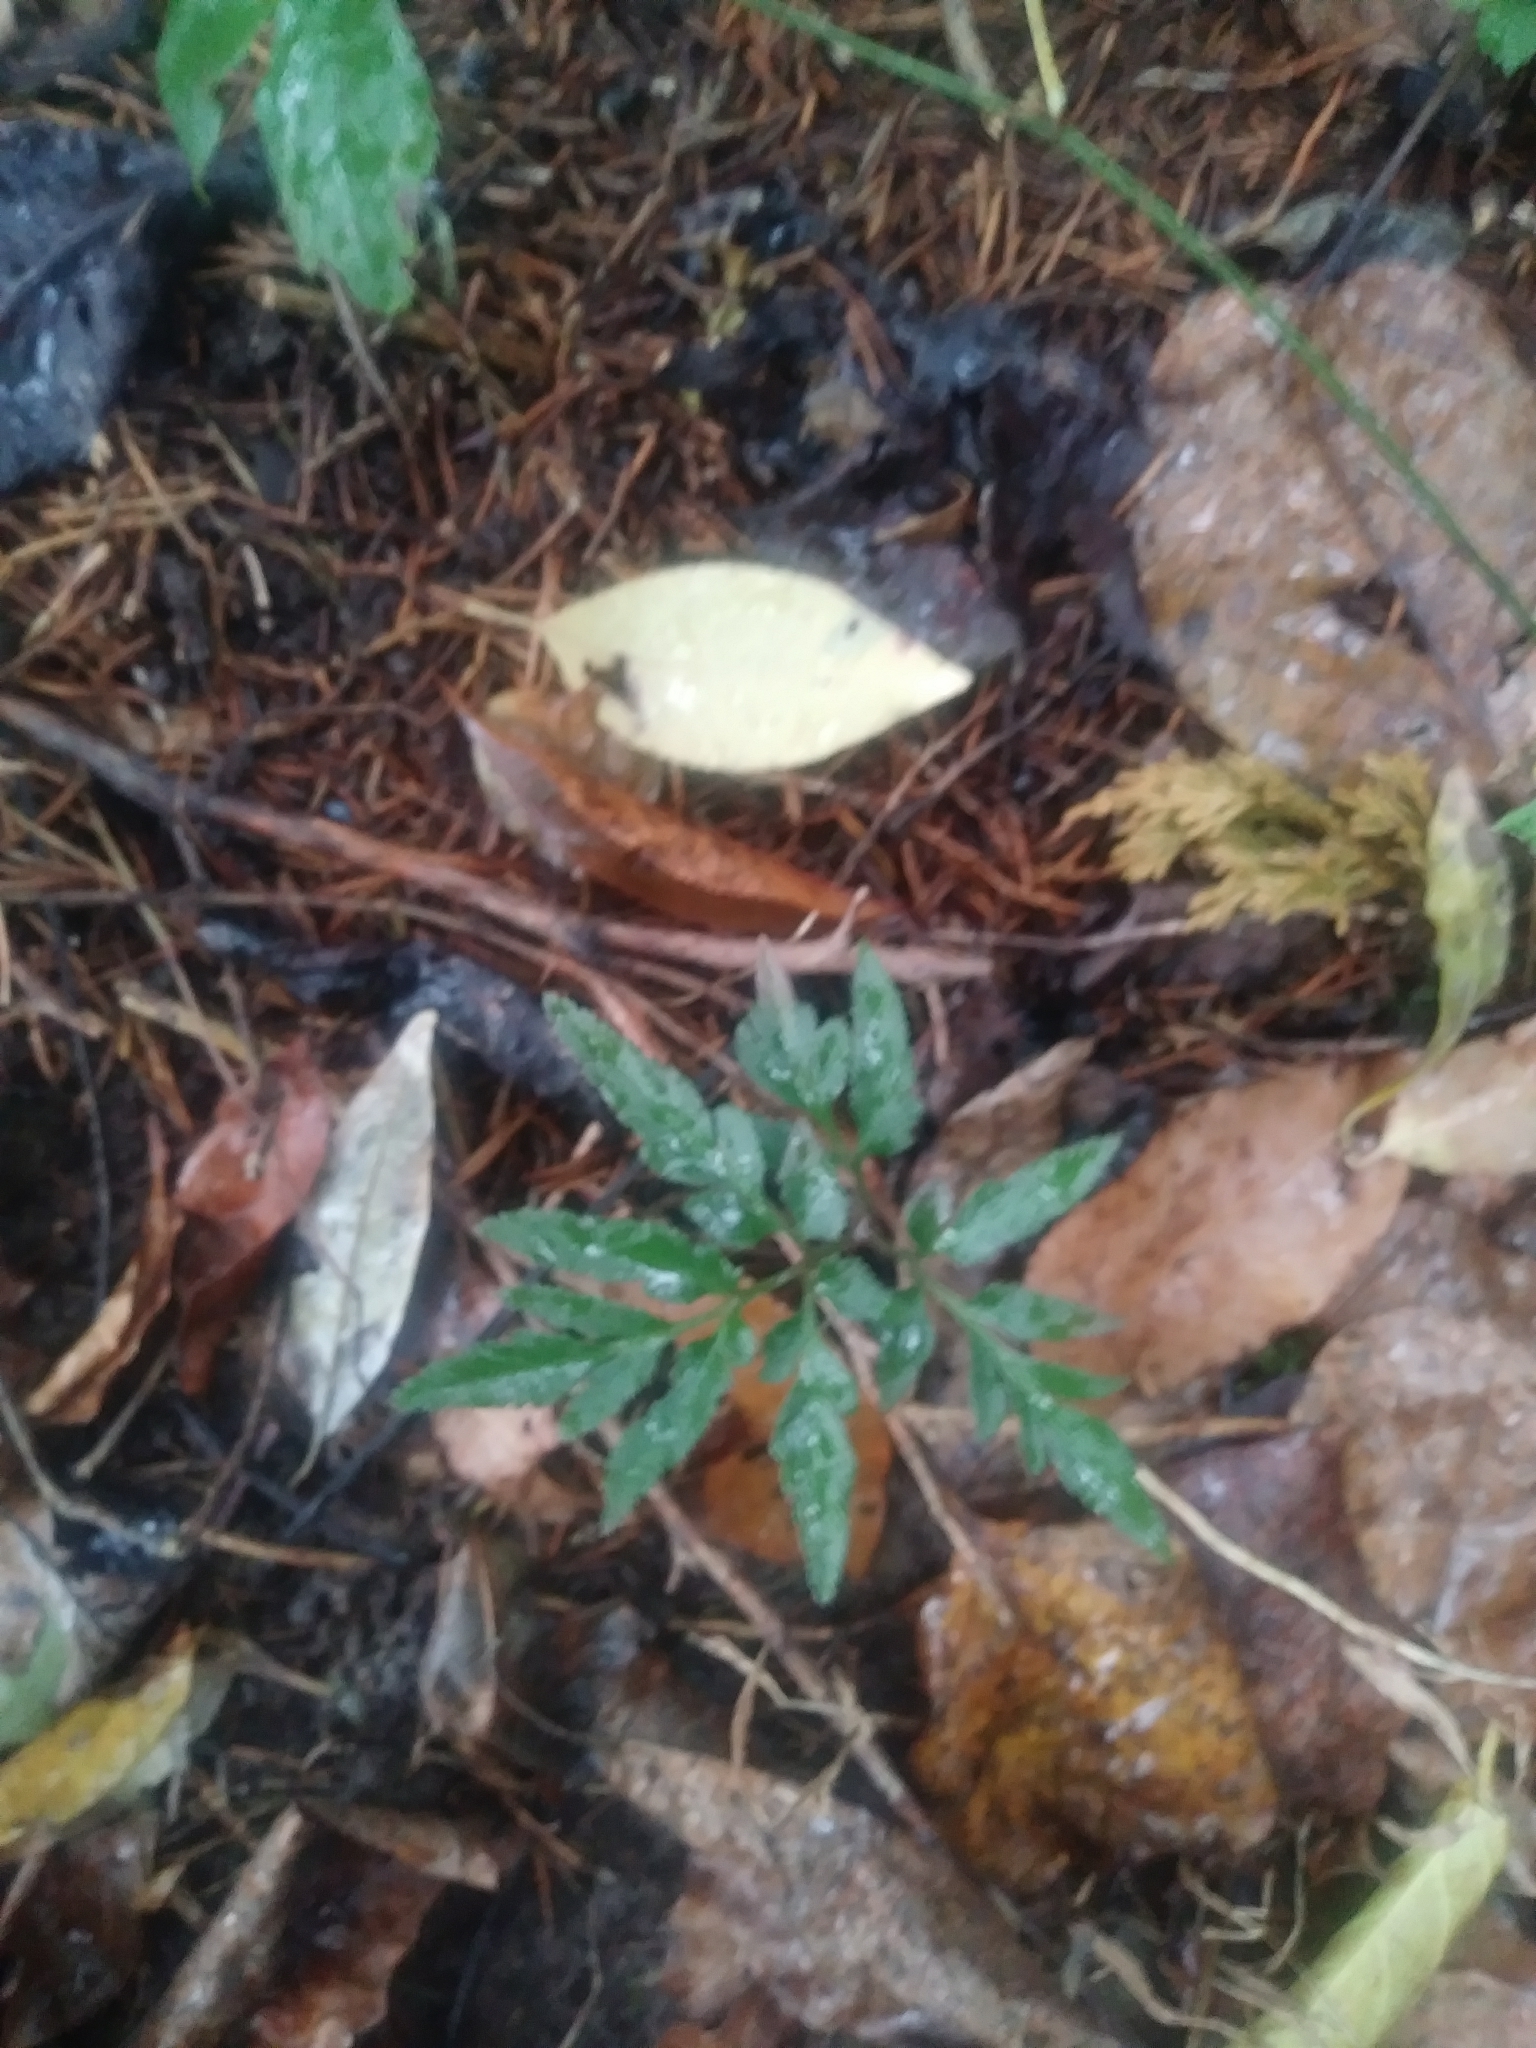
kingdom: Plantae
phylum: Tracheophyta
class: Polypodiopsida
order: Ophioglossales
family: Ophioglossaceae
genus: Sceptridium
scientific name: Sceptridium dissectum
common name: Cut-leaved grapefern
